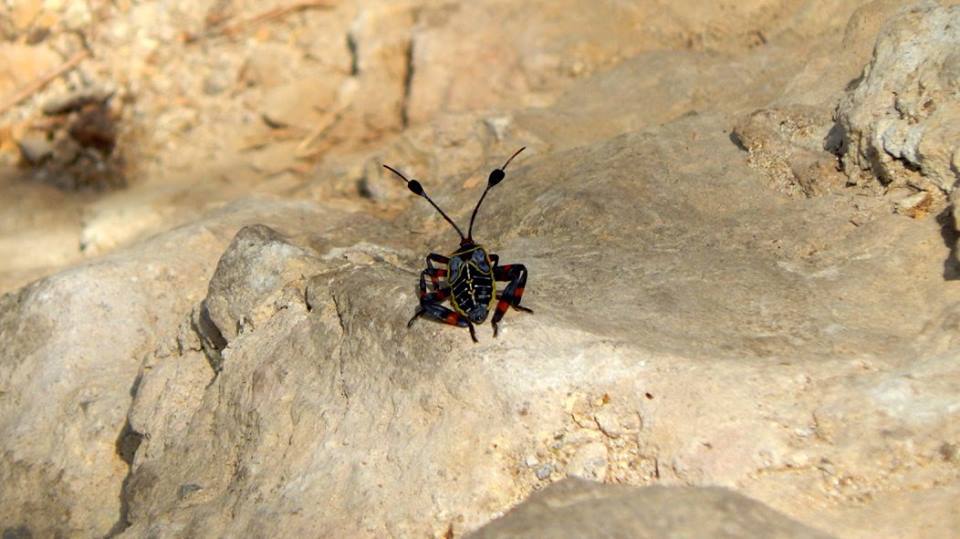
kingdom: Animalia
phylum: Arthropoda
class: Insecta
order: Hemiptera
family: Coreidae
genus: Thasus
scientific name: Thasus acutangulus
